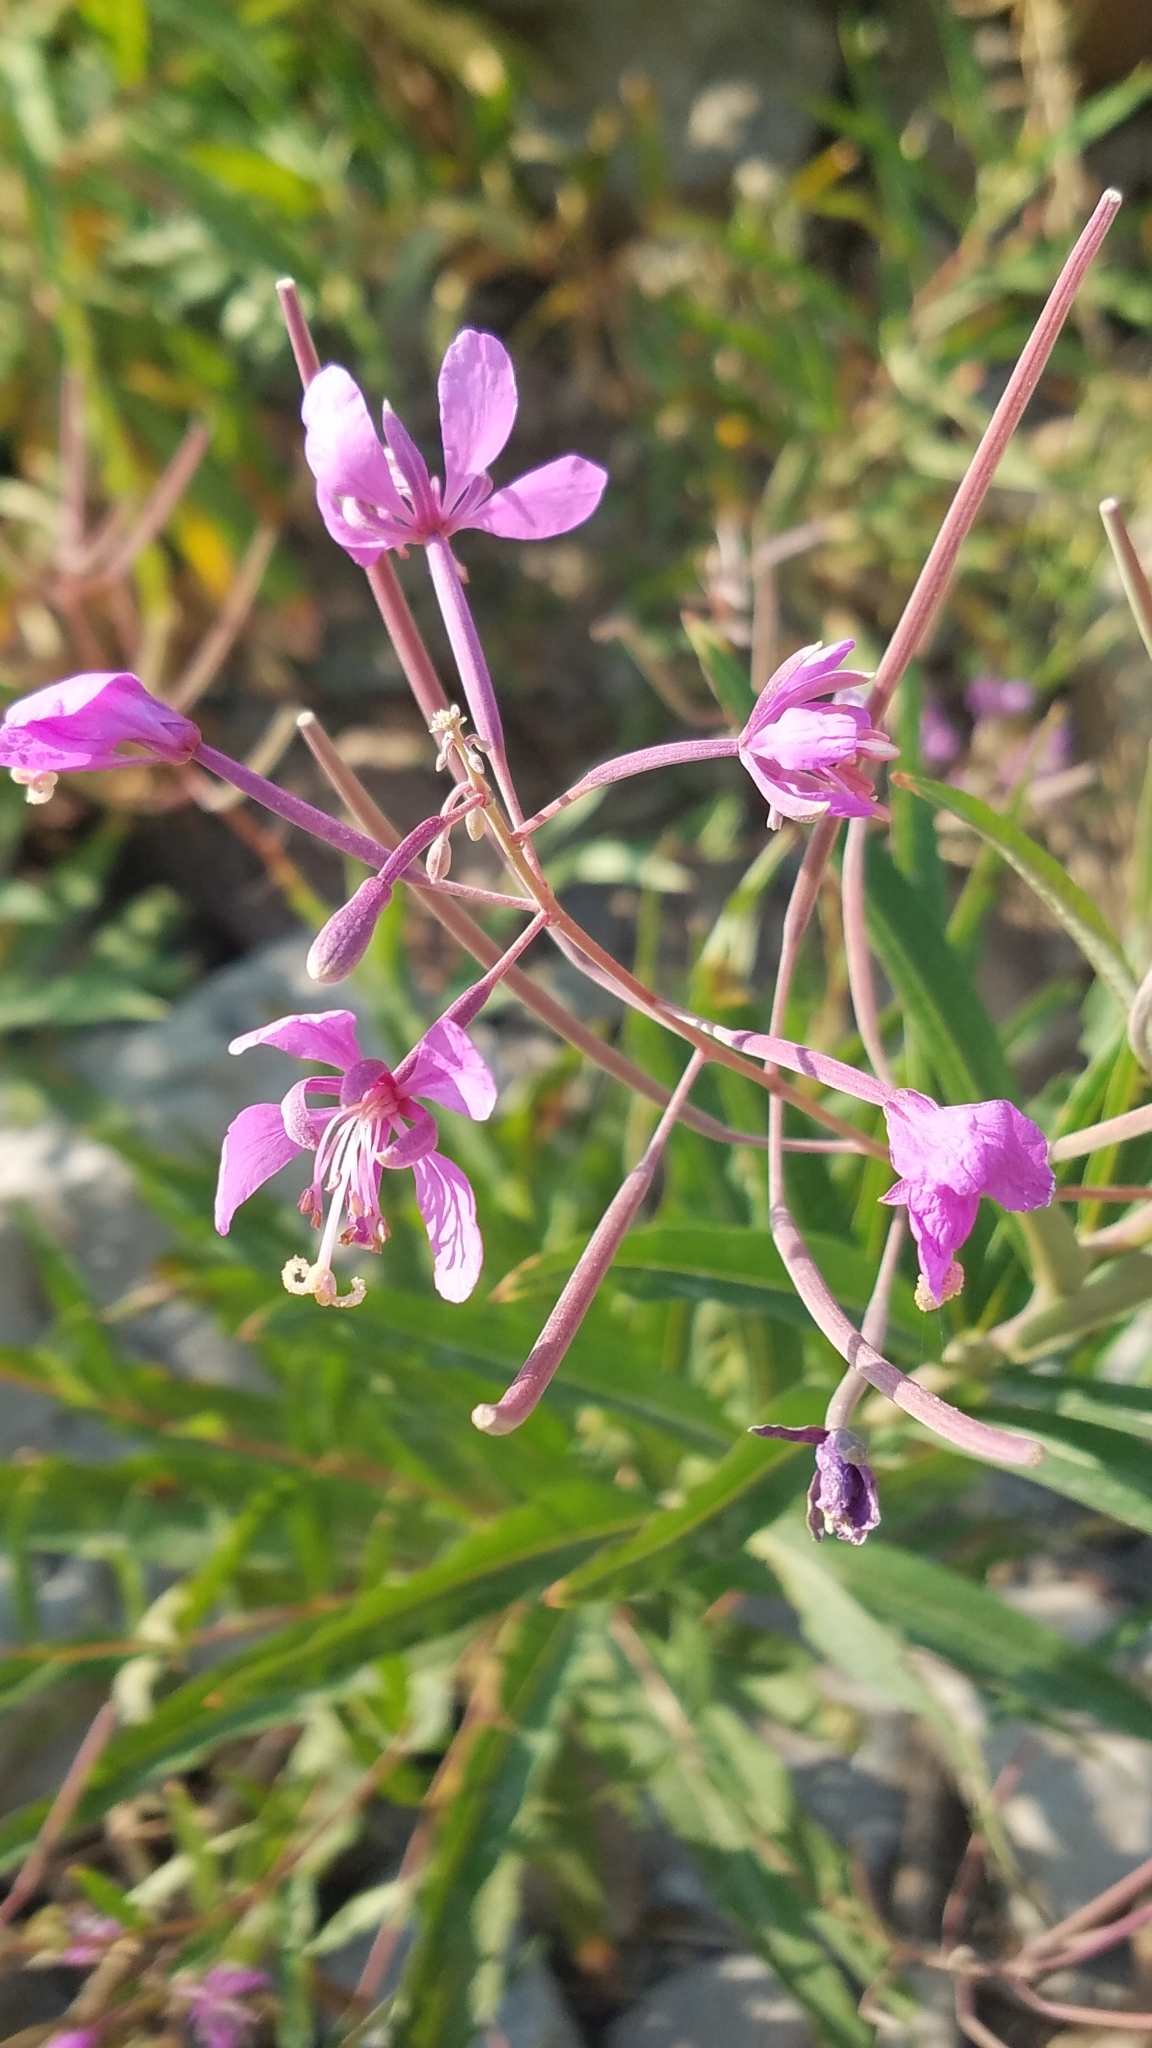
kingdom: Plantae
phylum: Tracheophyta
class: Magnoliopsida
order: Myrtales
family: Onagraceae
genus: Chamaenerion
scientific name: Chamaenerion angustifolium
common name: Fireweed
